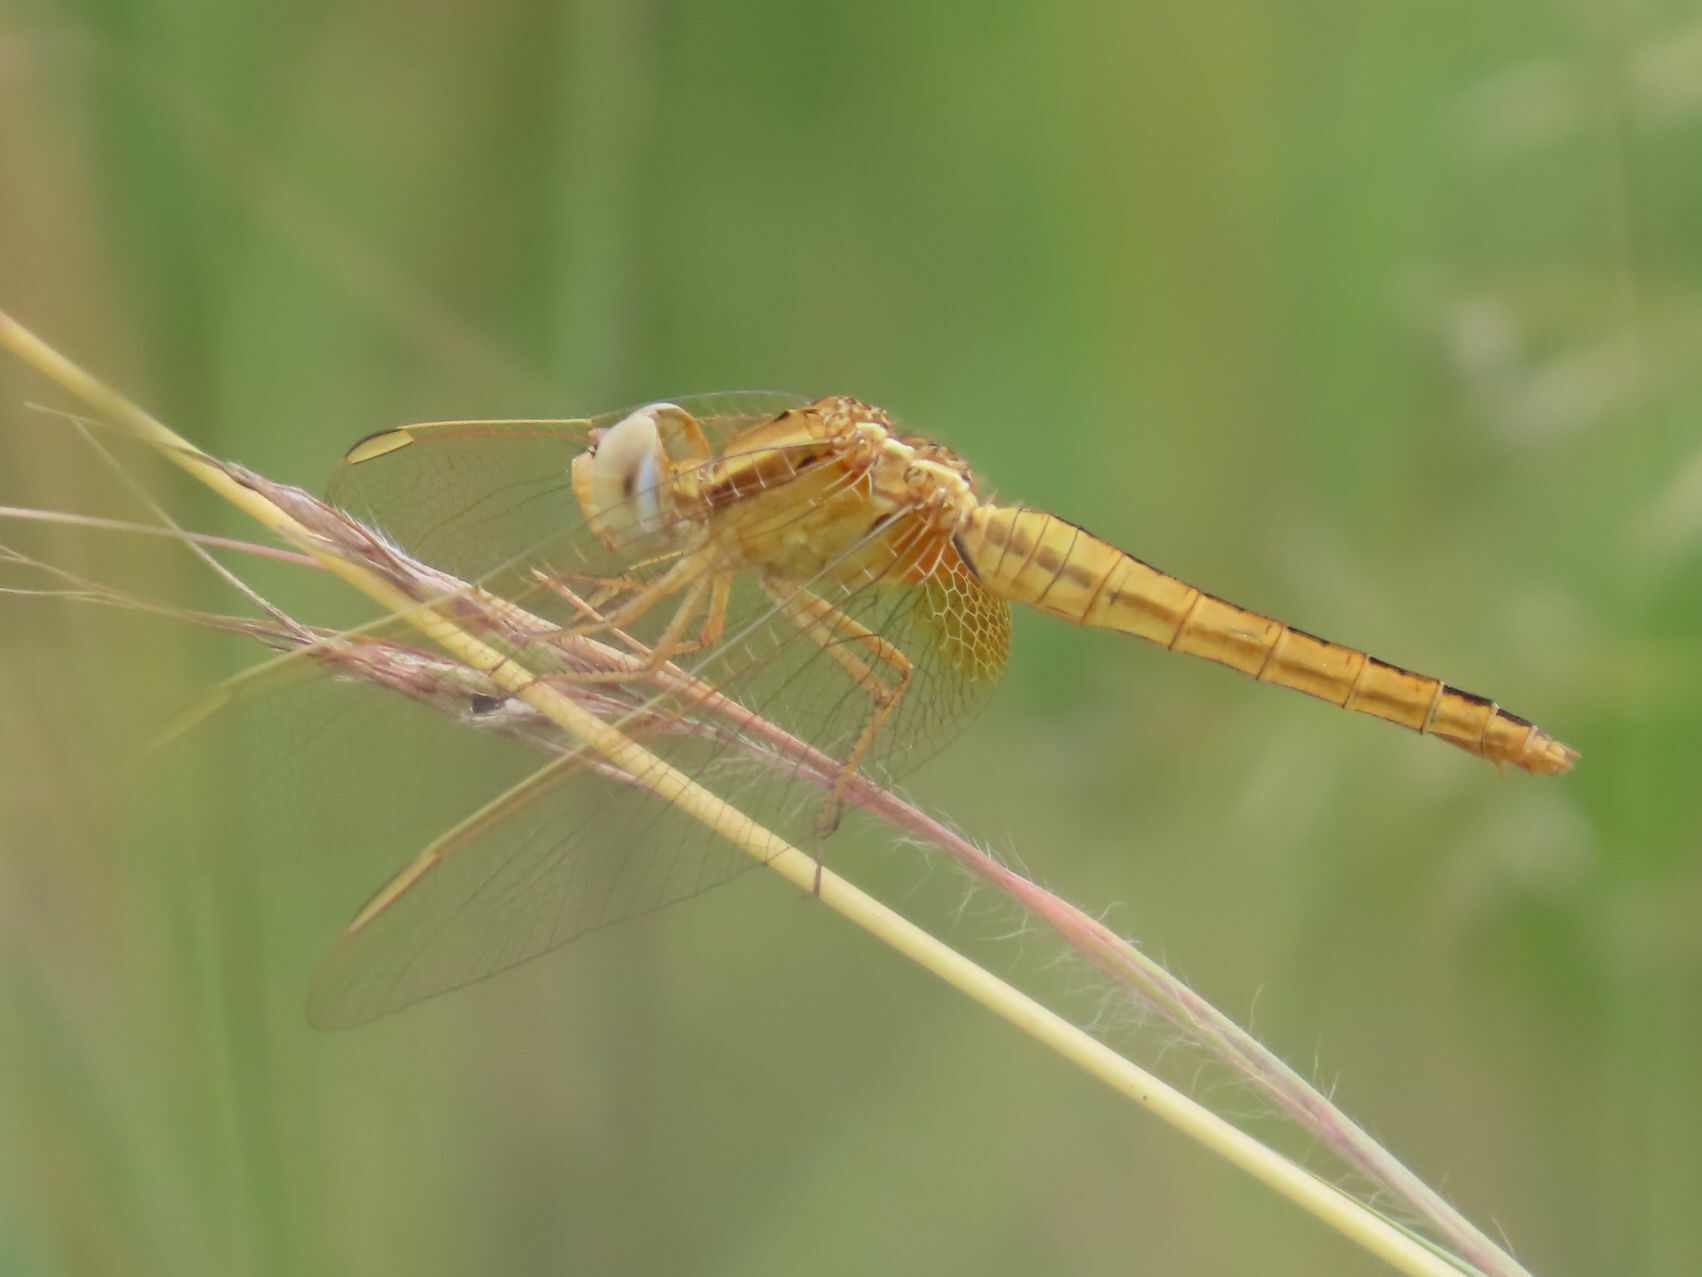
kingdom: Animalia
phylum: Arthropoda
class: Insecta
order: Odonata
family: Libellulidae
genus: Crocothemis
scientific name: Crocothemis erythraea
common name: Scarlet dragonfly
